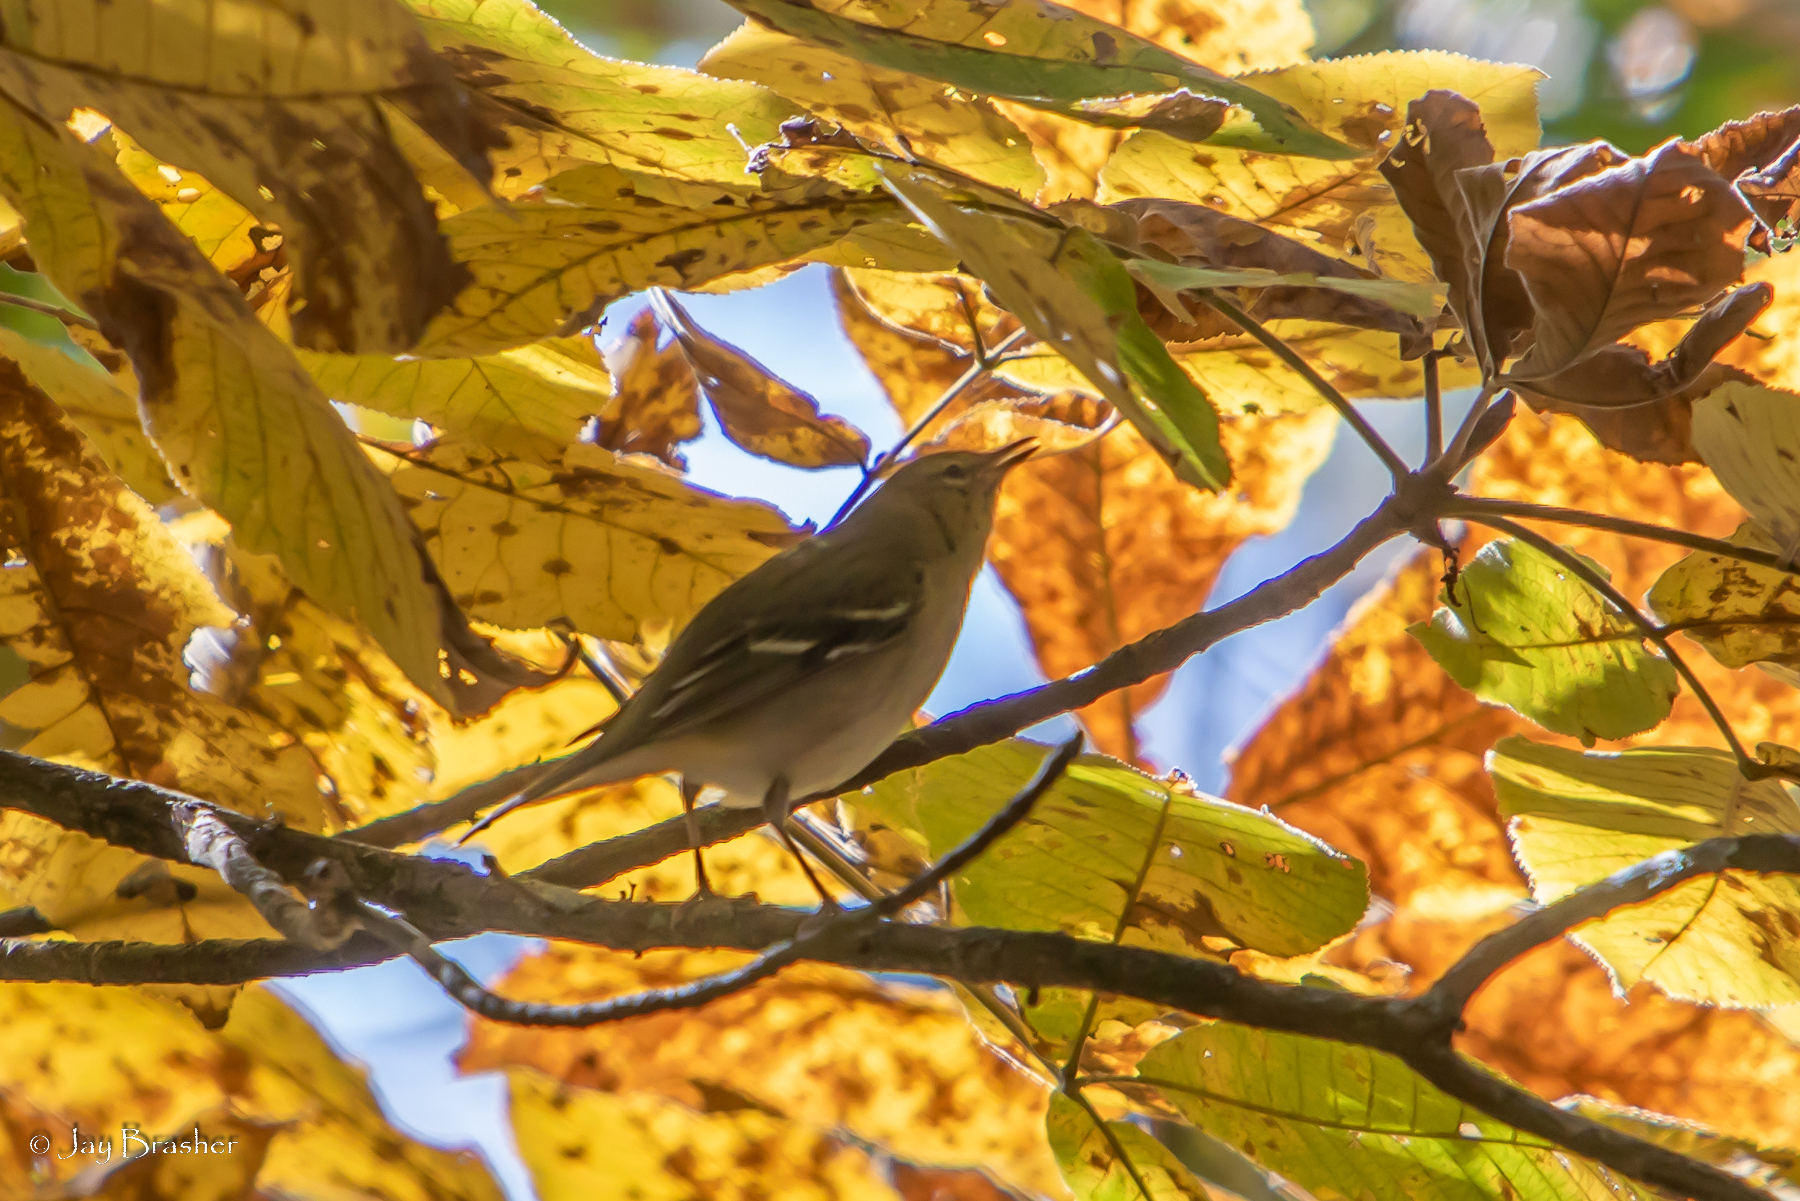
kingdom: Animalia
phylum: Chordata
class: Aves
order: Passeriformes
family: Parulidae
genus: Setophaga
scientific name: Setophaga castanea
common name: Bay-breasted warbler
